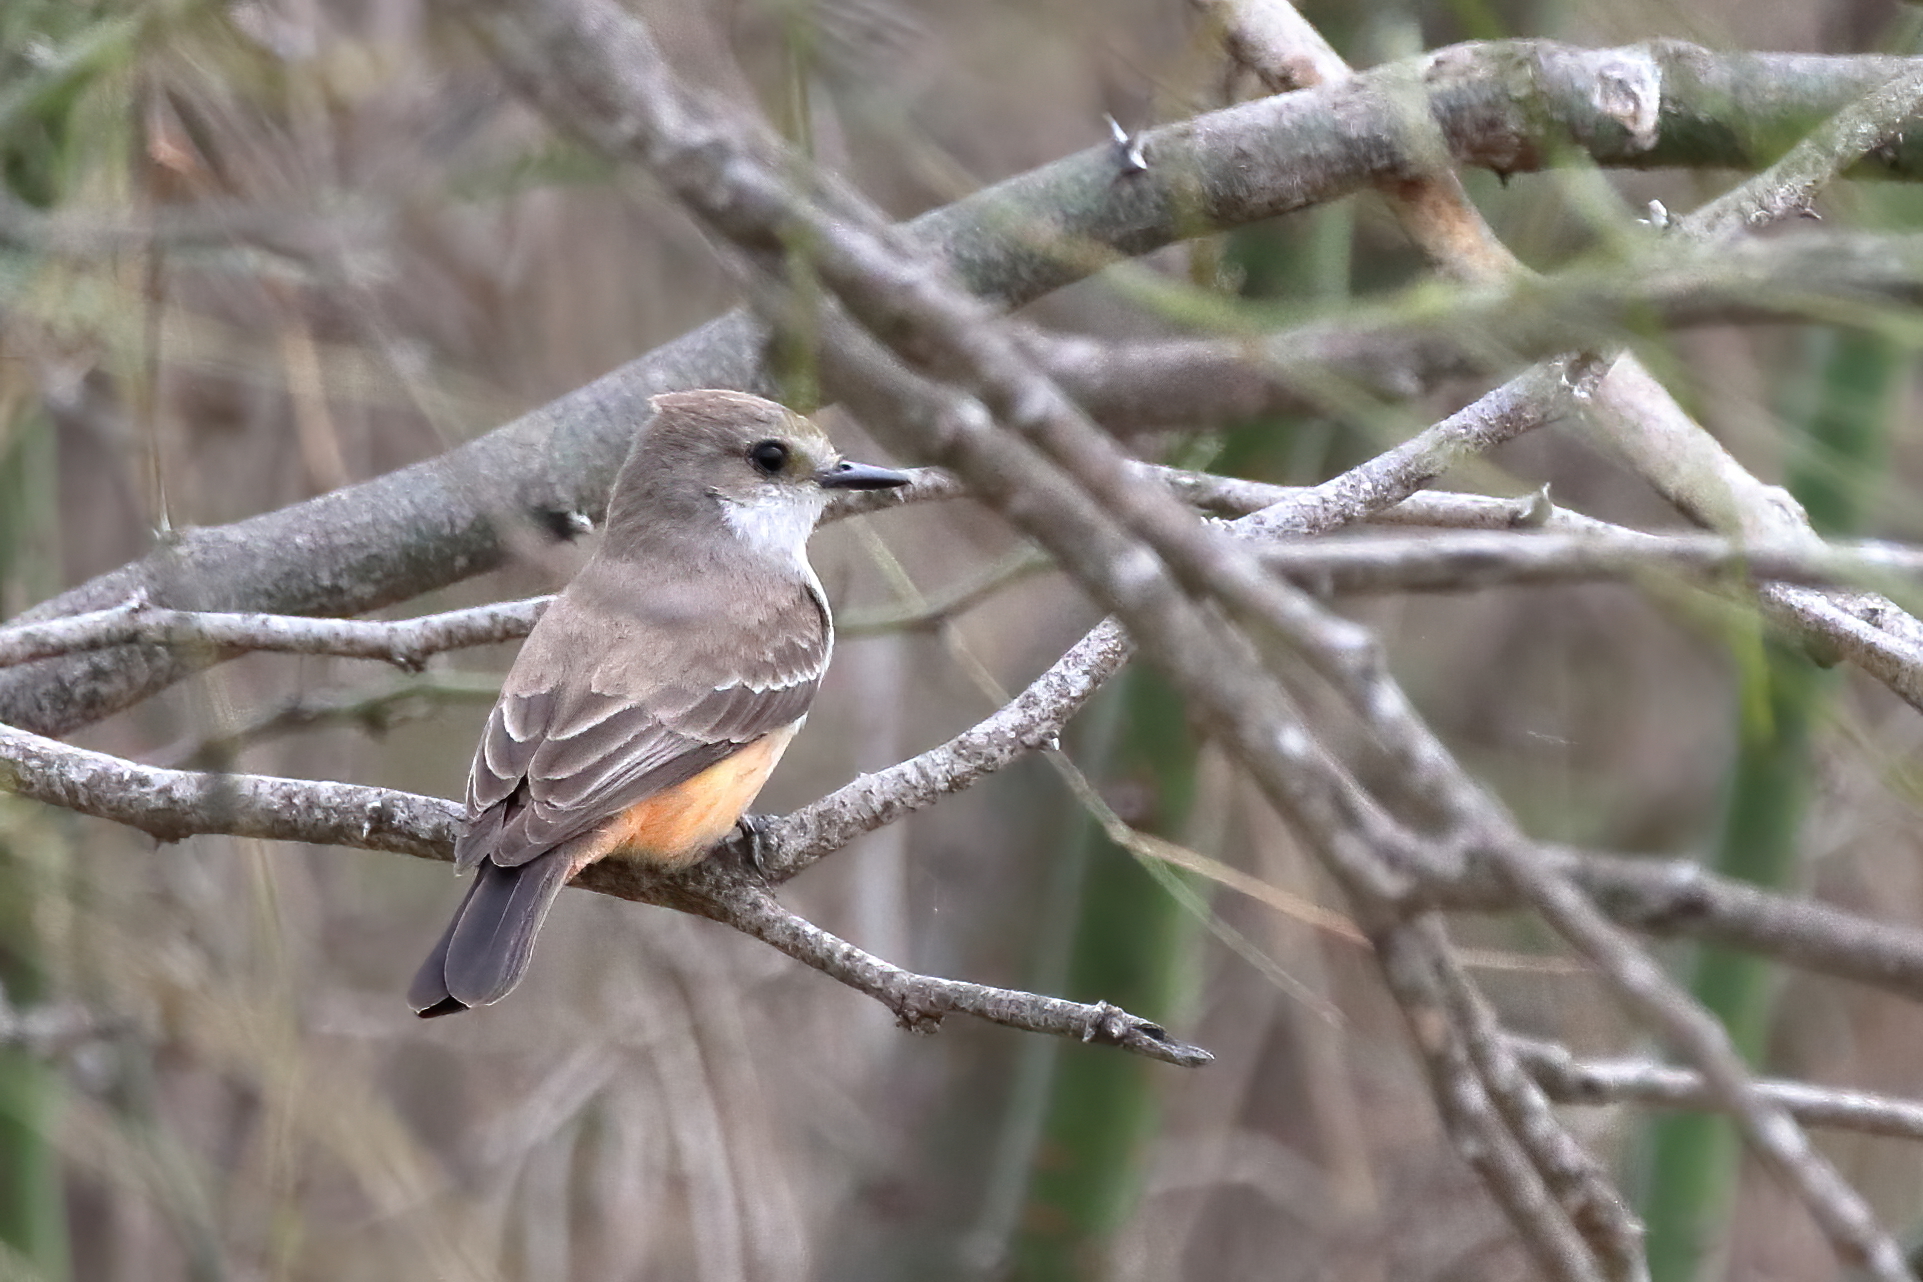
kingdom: Animalia
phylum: Chordata
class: Aves
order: Passeriformes
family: Tyrannidae
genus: Pyrocephalus
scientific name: Pyrocephalus rubinus
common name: Vermilion flycatcher
